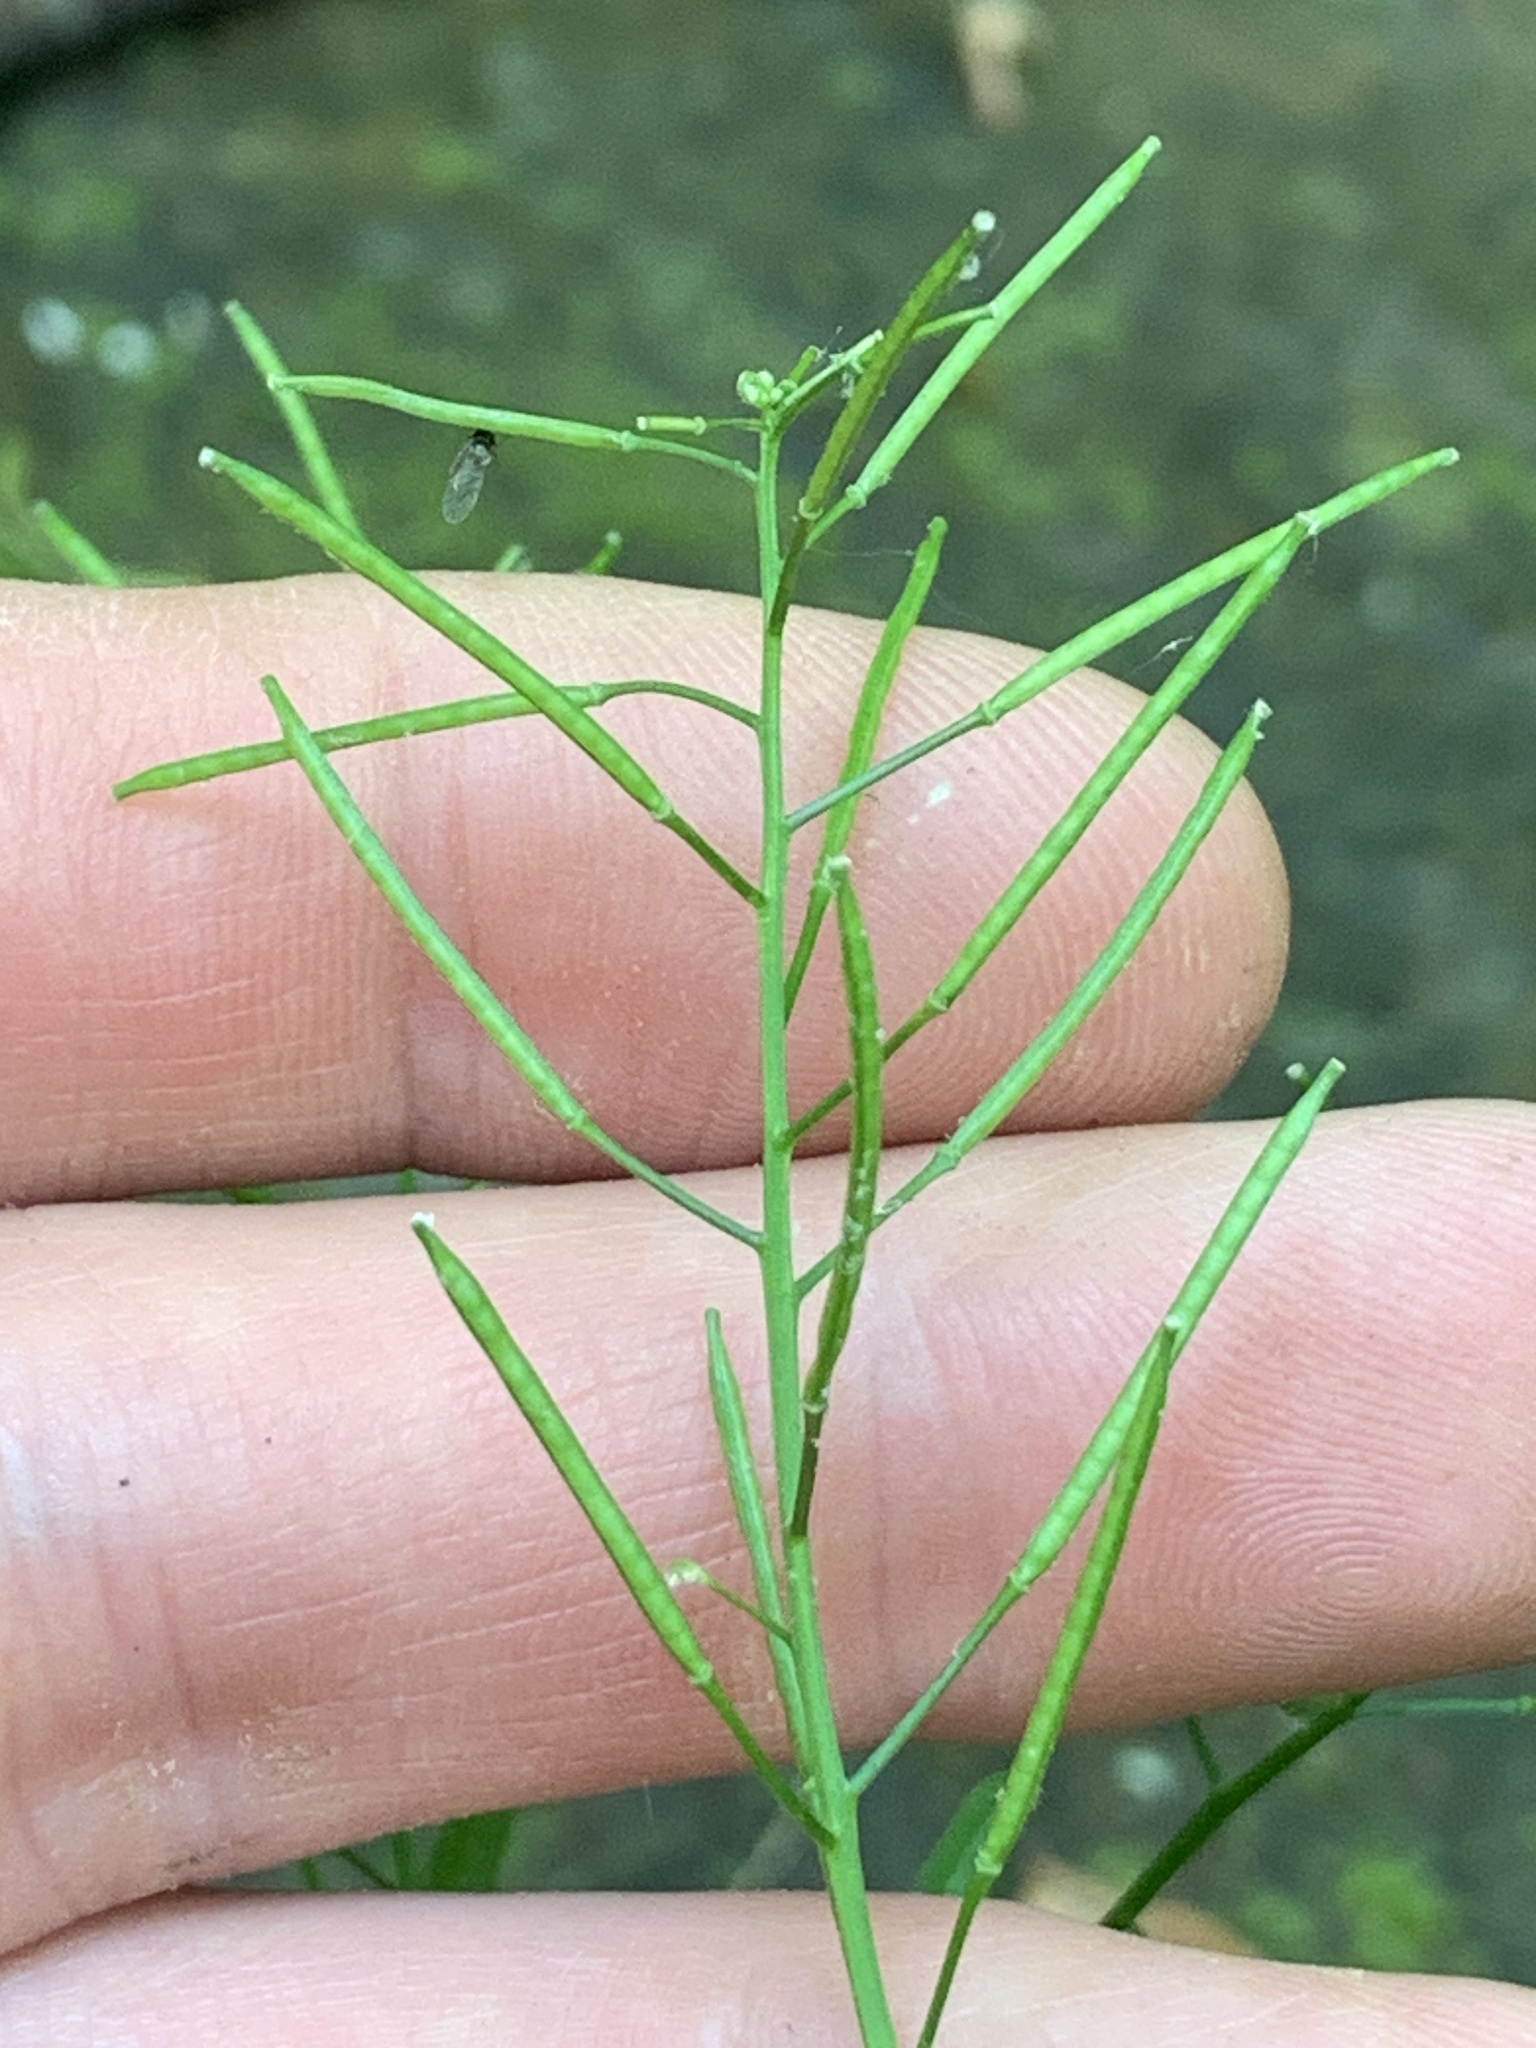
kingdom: Plantae
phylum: Tracheophyta
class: Magnoliopsida
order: Brassicales
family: Brassicaceae
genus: Cardamine
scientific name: Cardamine pensylvanica
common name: Pennsylvania bittercress
